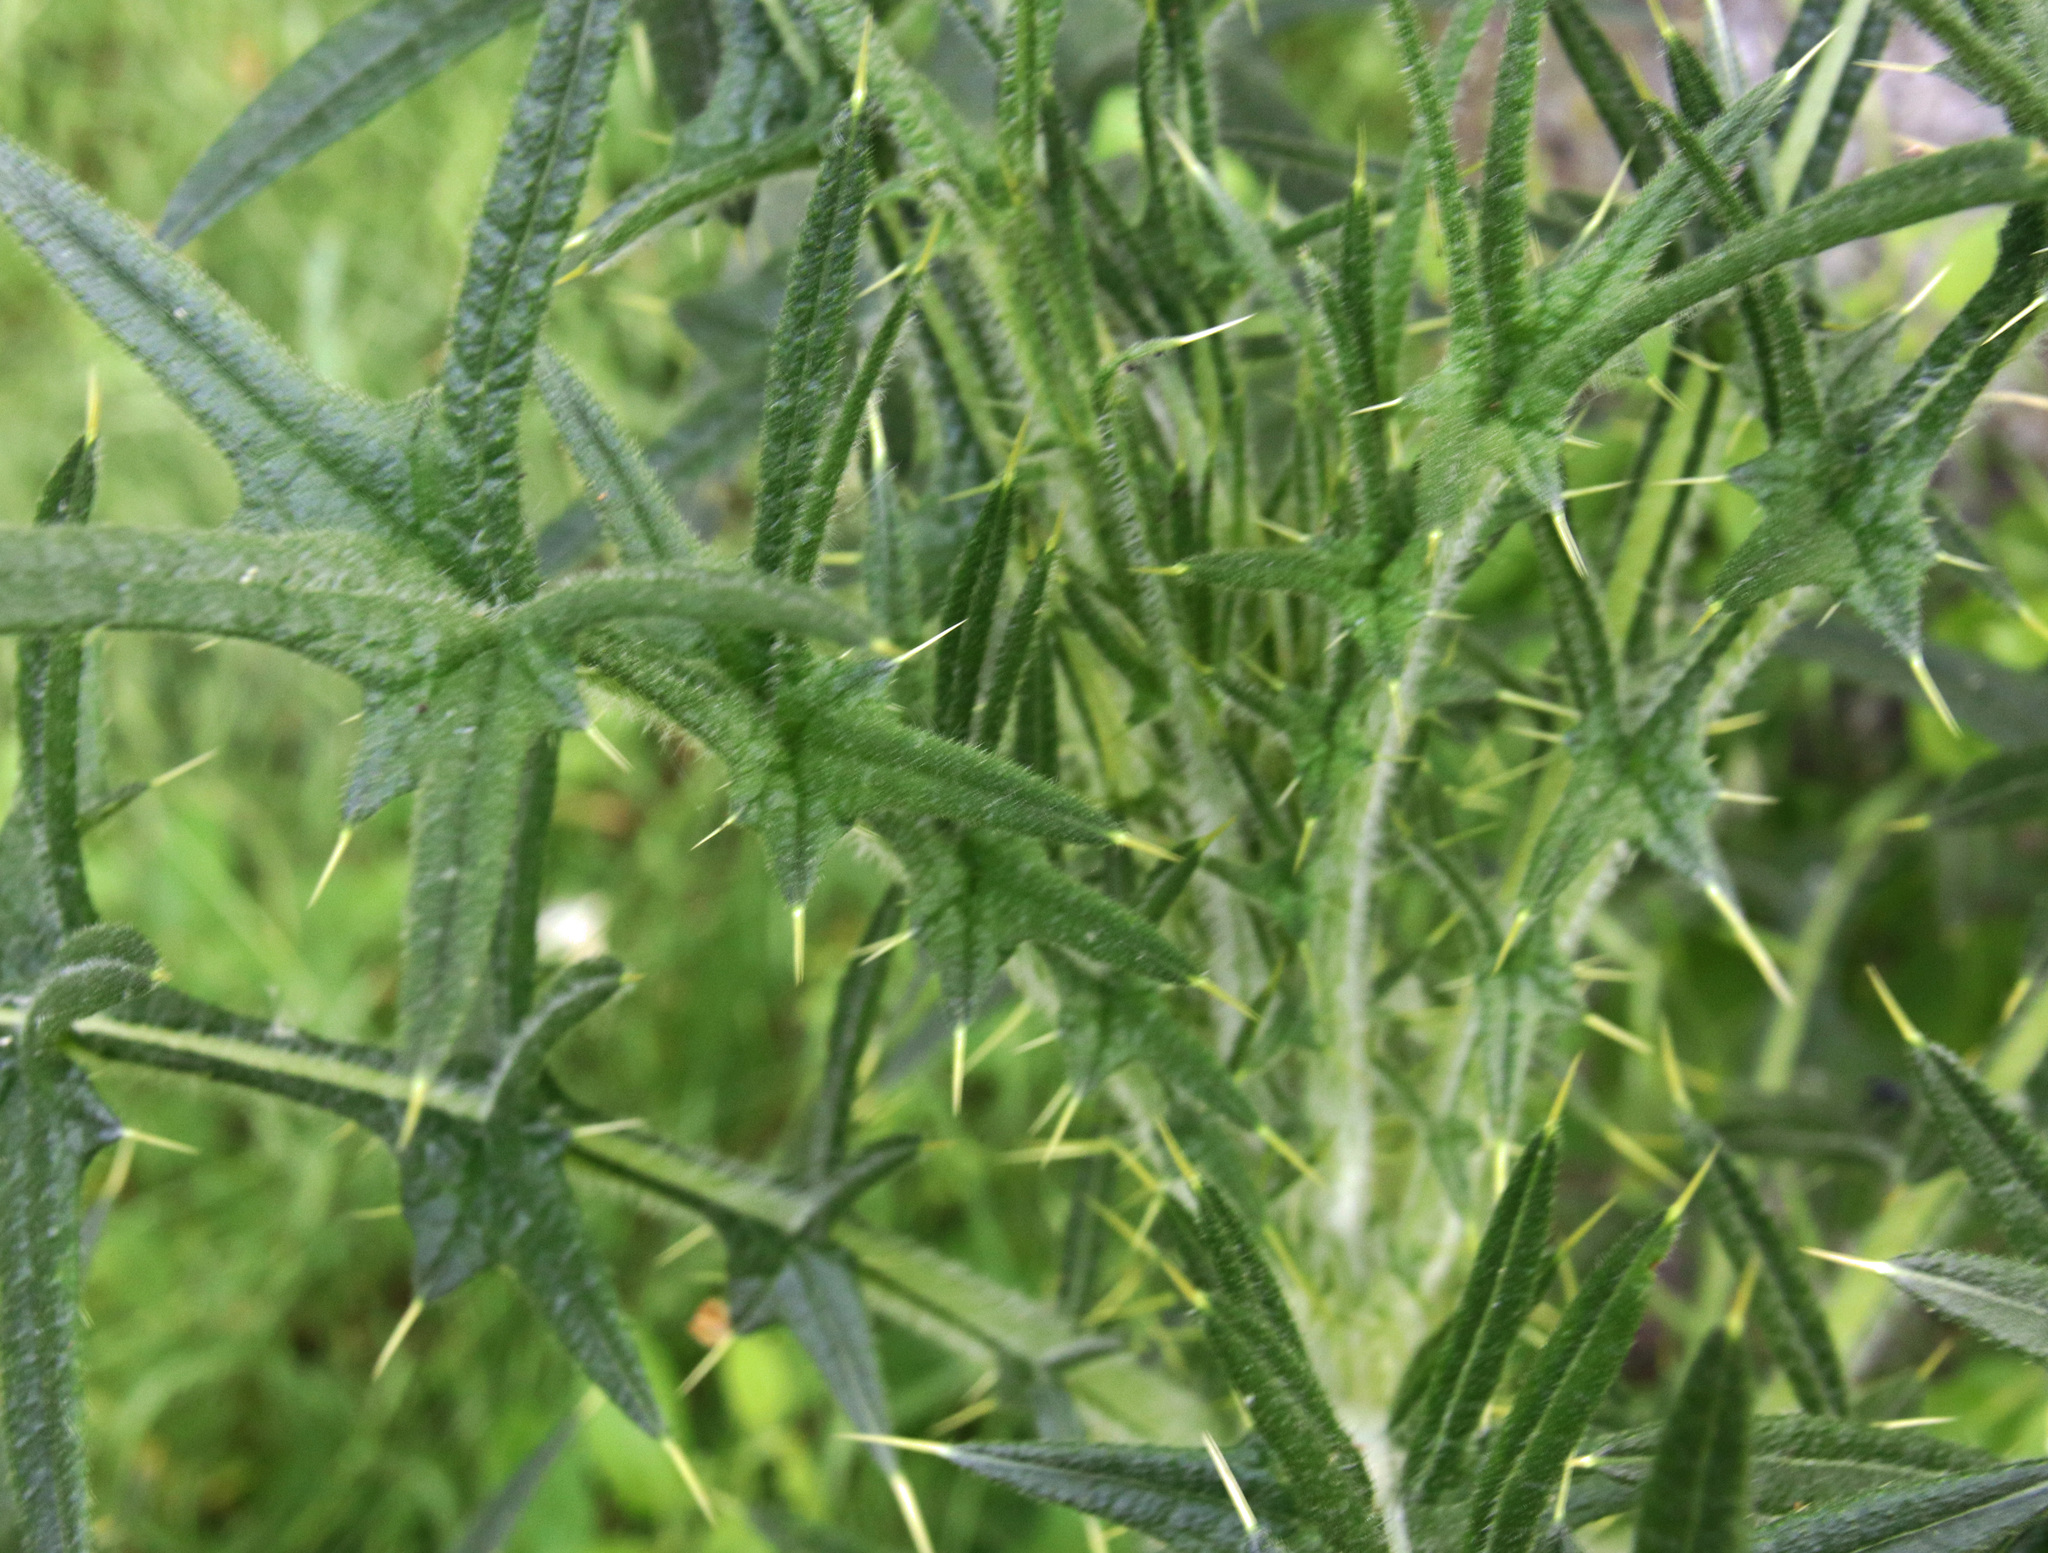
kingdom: Plantae
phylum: Tracheophyta
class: Magnoliopsida
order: Asterales
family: Asteraceae
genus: Cirsium
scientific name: Cirsium vulgare
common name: Bull thistle
